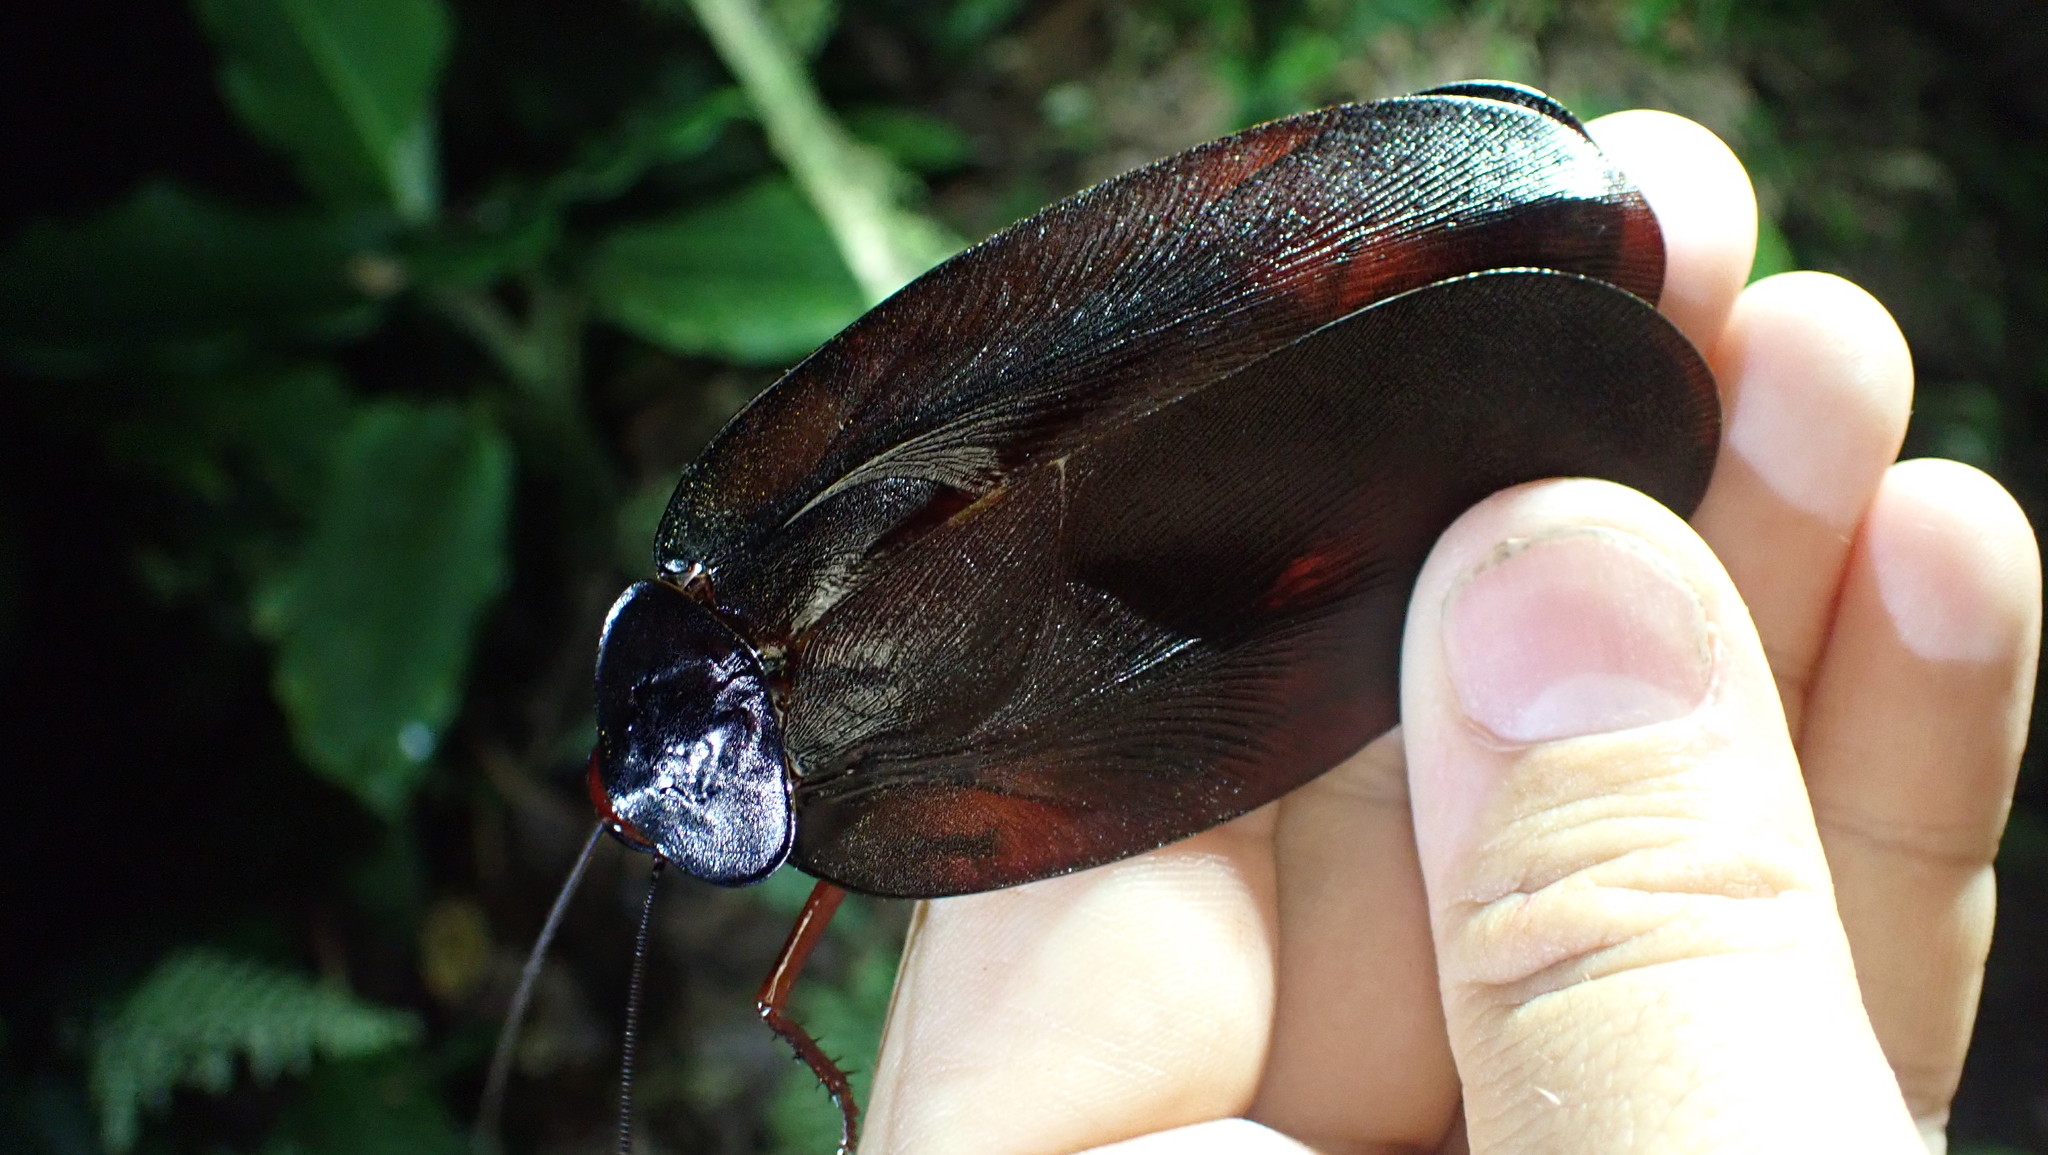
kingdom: Animalia
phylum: Arthropoda
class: Insecta
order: Blattodea
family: Ectobiidae
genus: Megaloblatta
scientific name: Megaloblatta blaberoides
